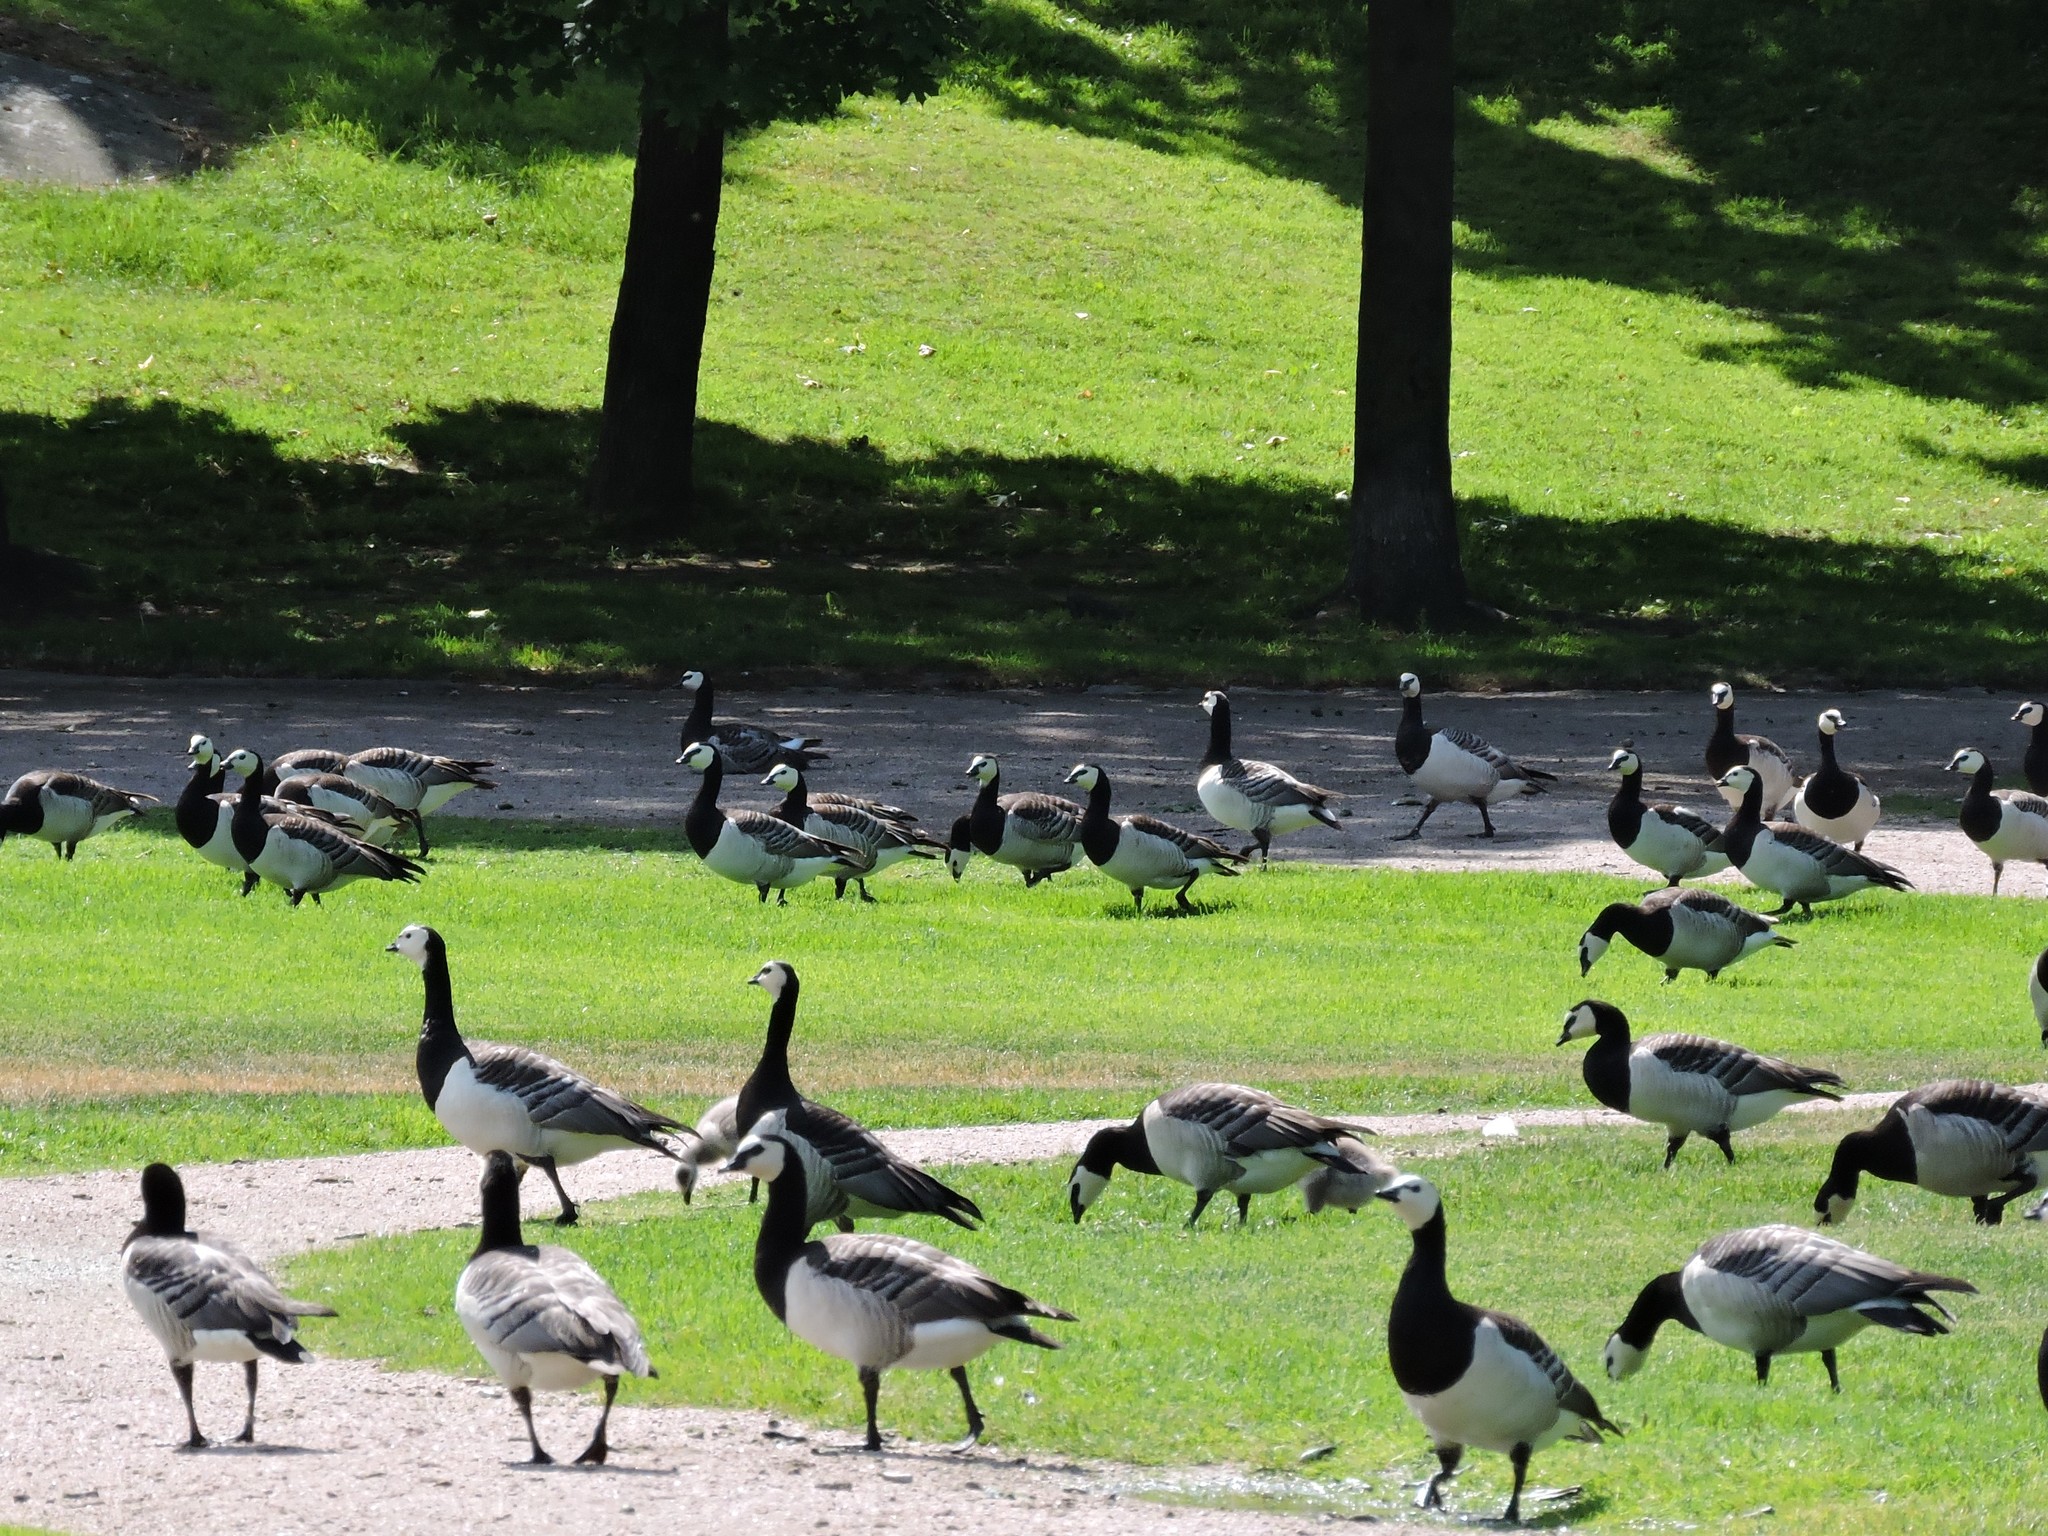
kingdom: Animalia
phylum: Chordata
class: Aves
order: Anseriformes
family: Anatidae
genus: Branta
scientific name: Branta leucopsis
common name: Barnacle goose
